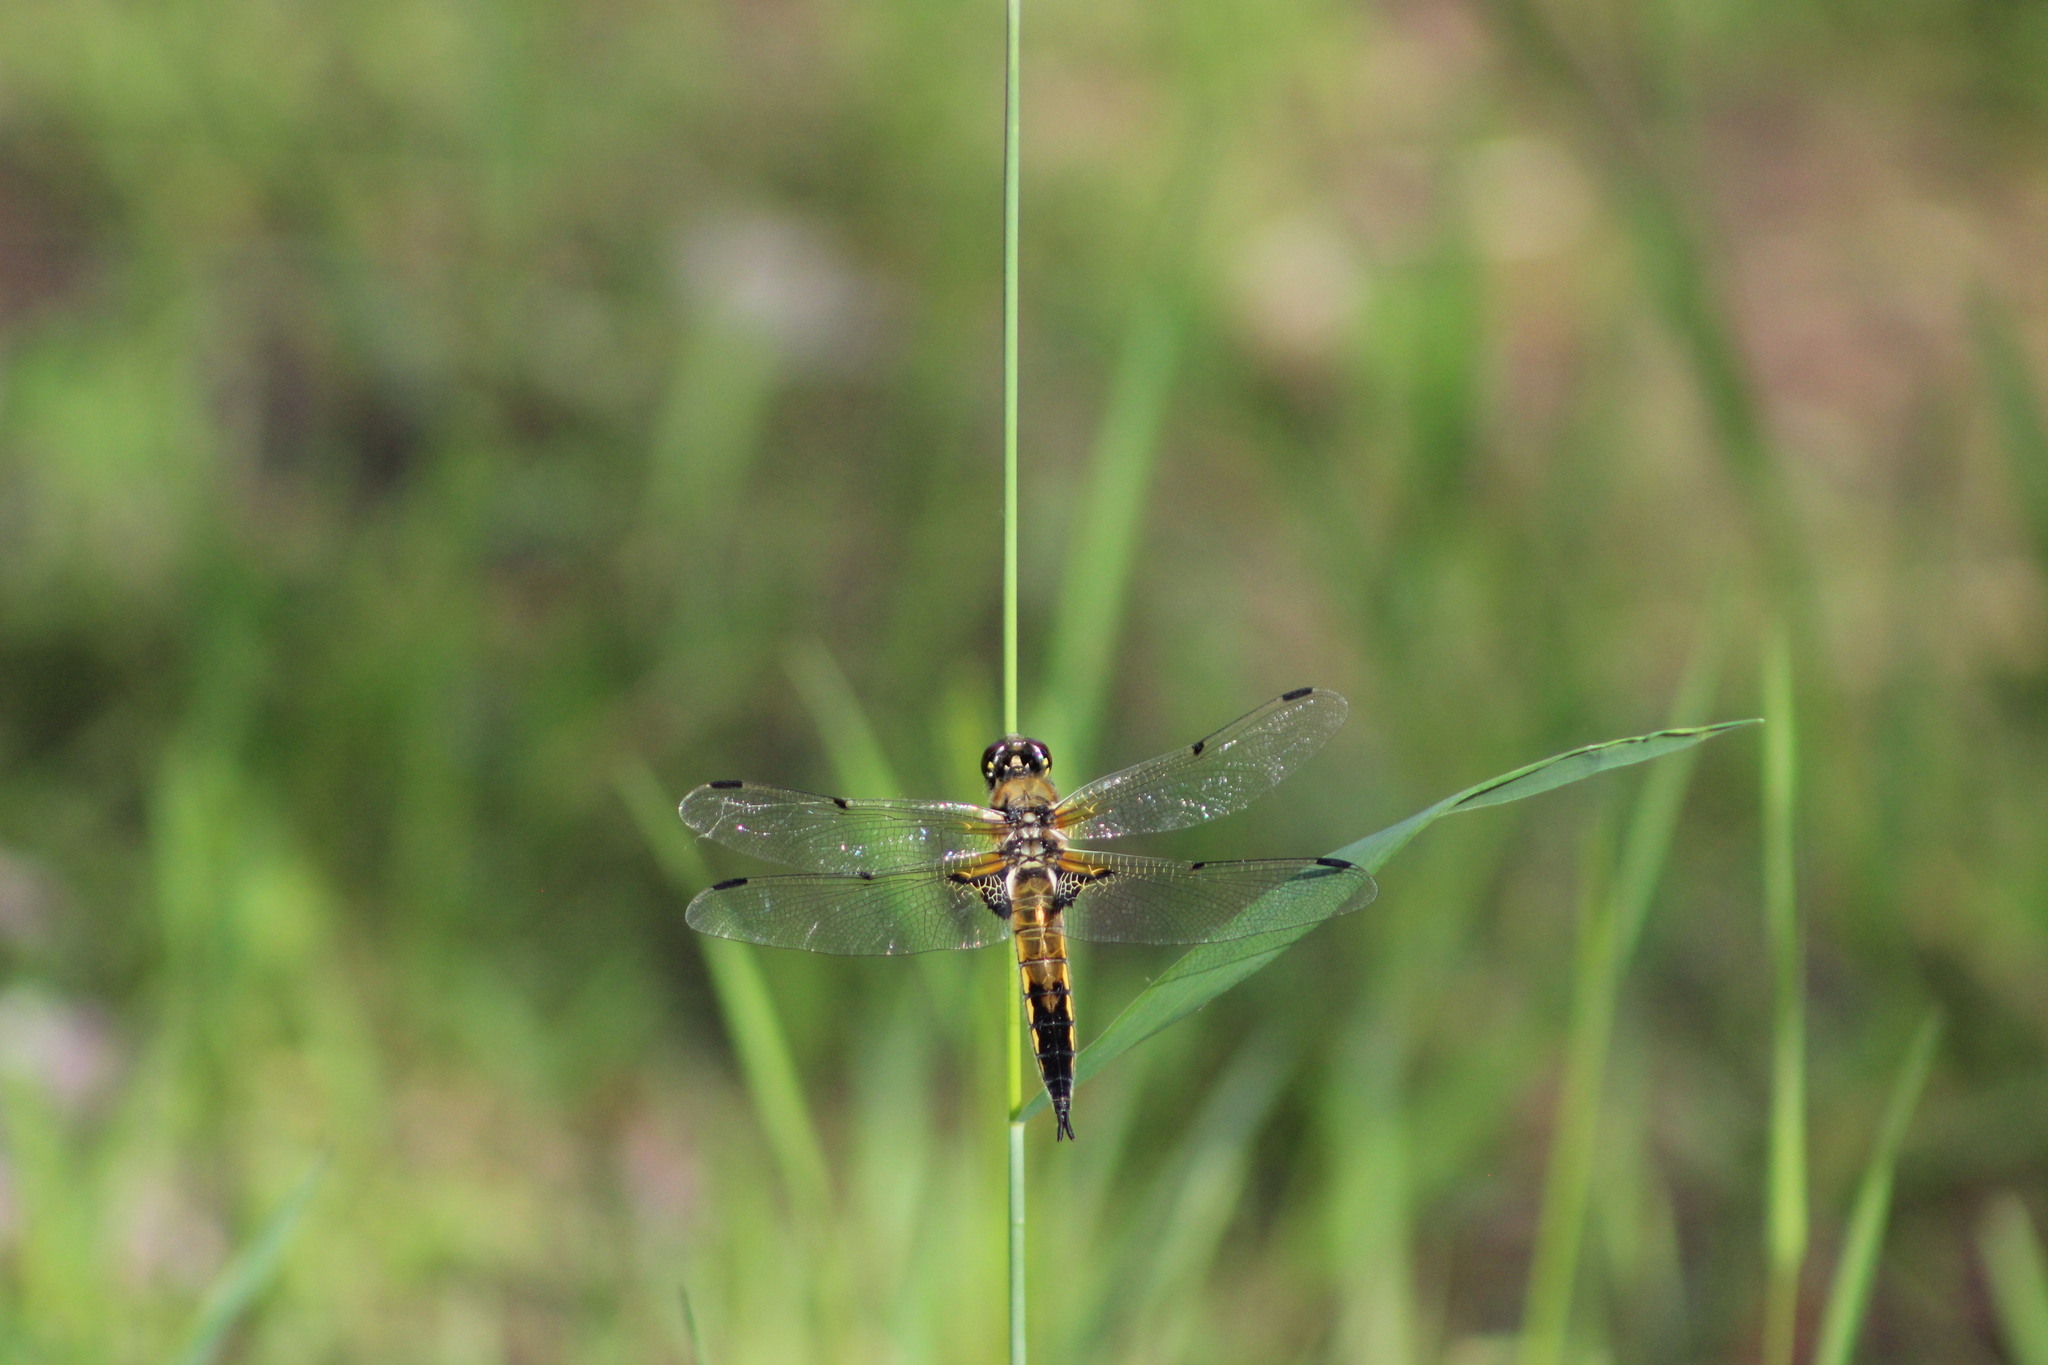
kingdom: Animalia
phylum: Arthropoda
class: Insecta
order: Odonata
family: Libellulidae
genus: Libellula
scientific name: Libellula quadrimaculata
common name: Four-spotted chaser
